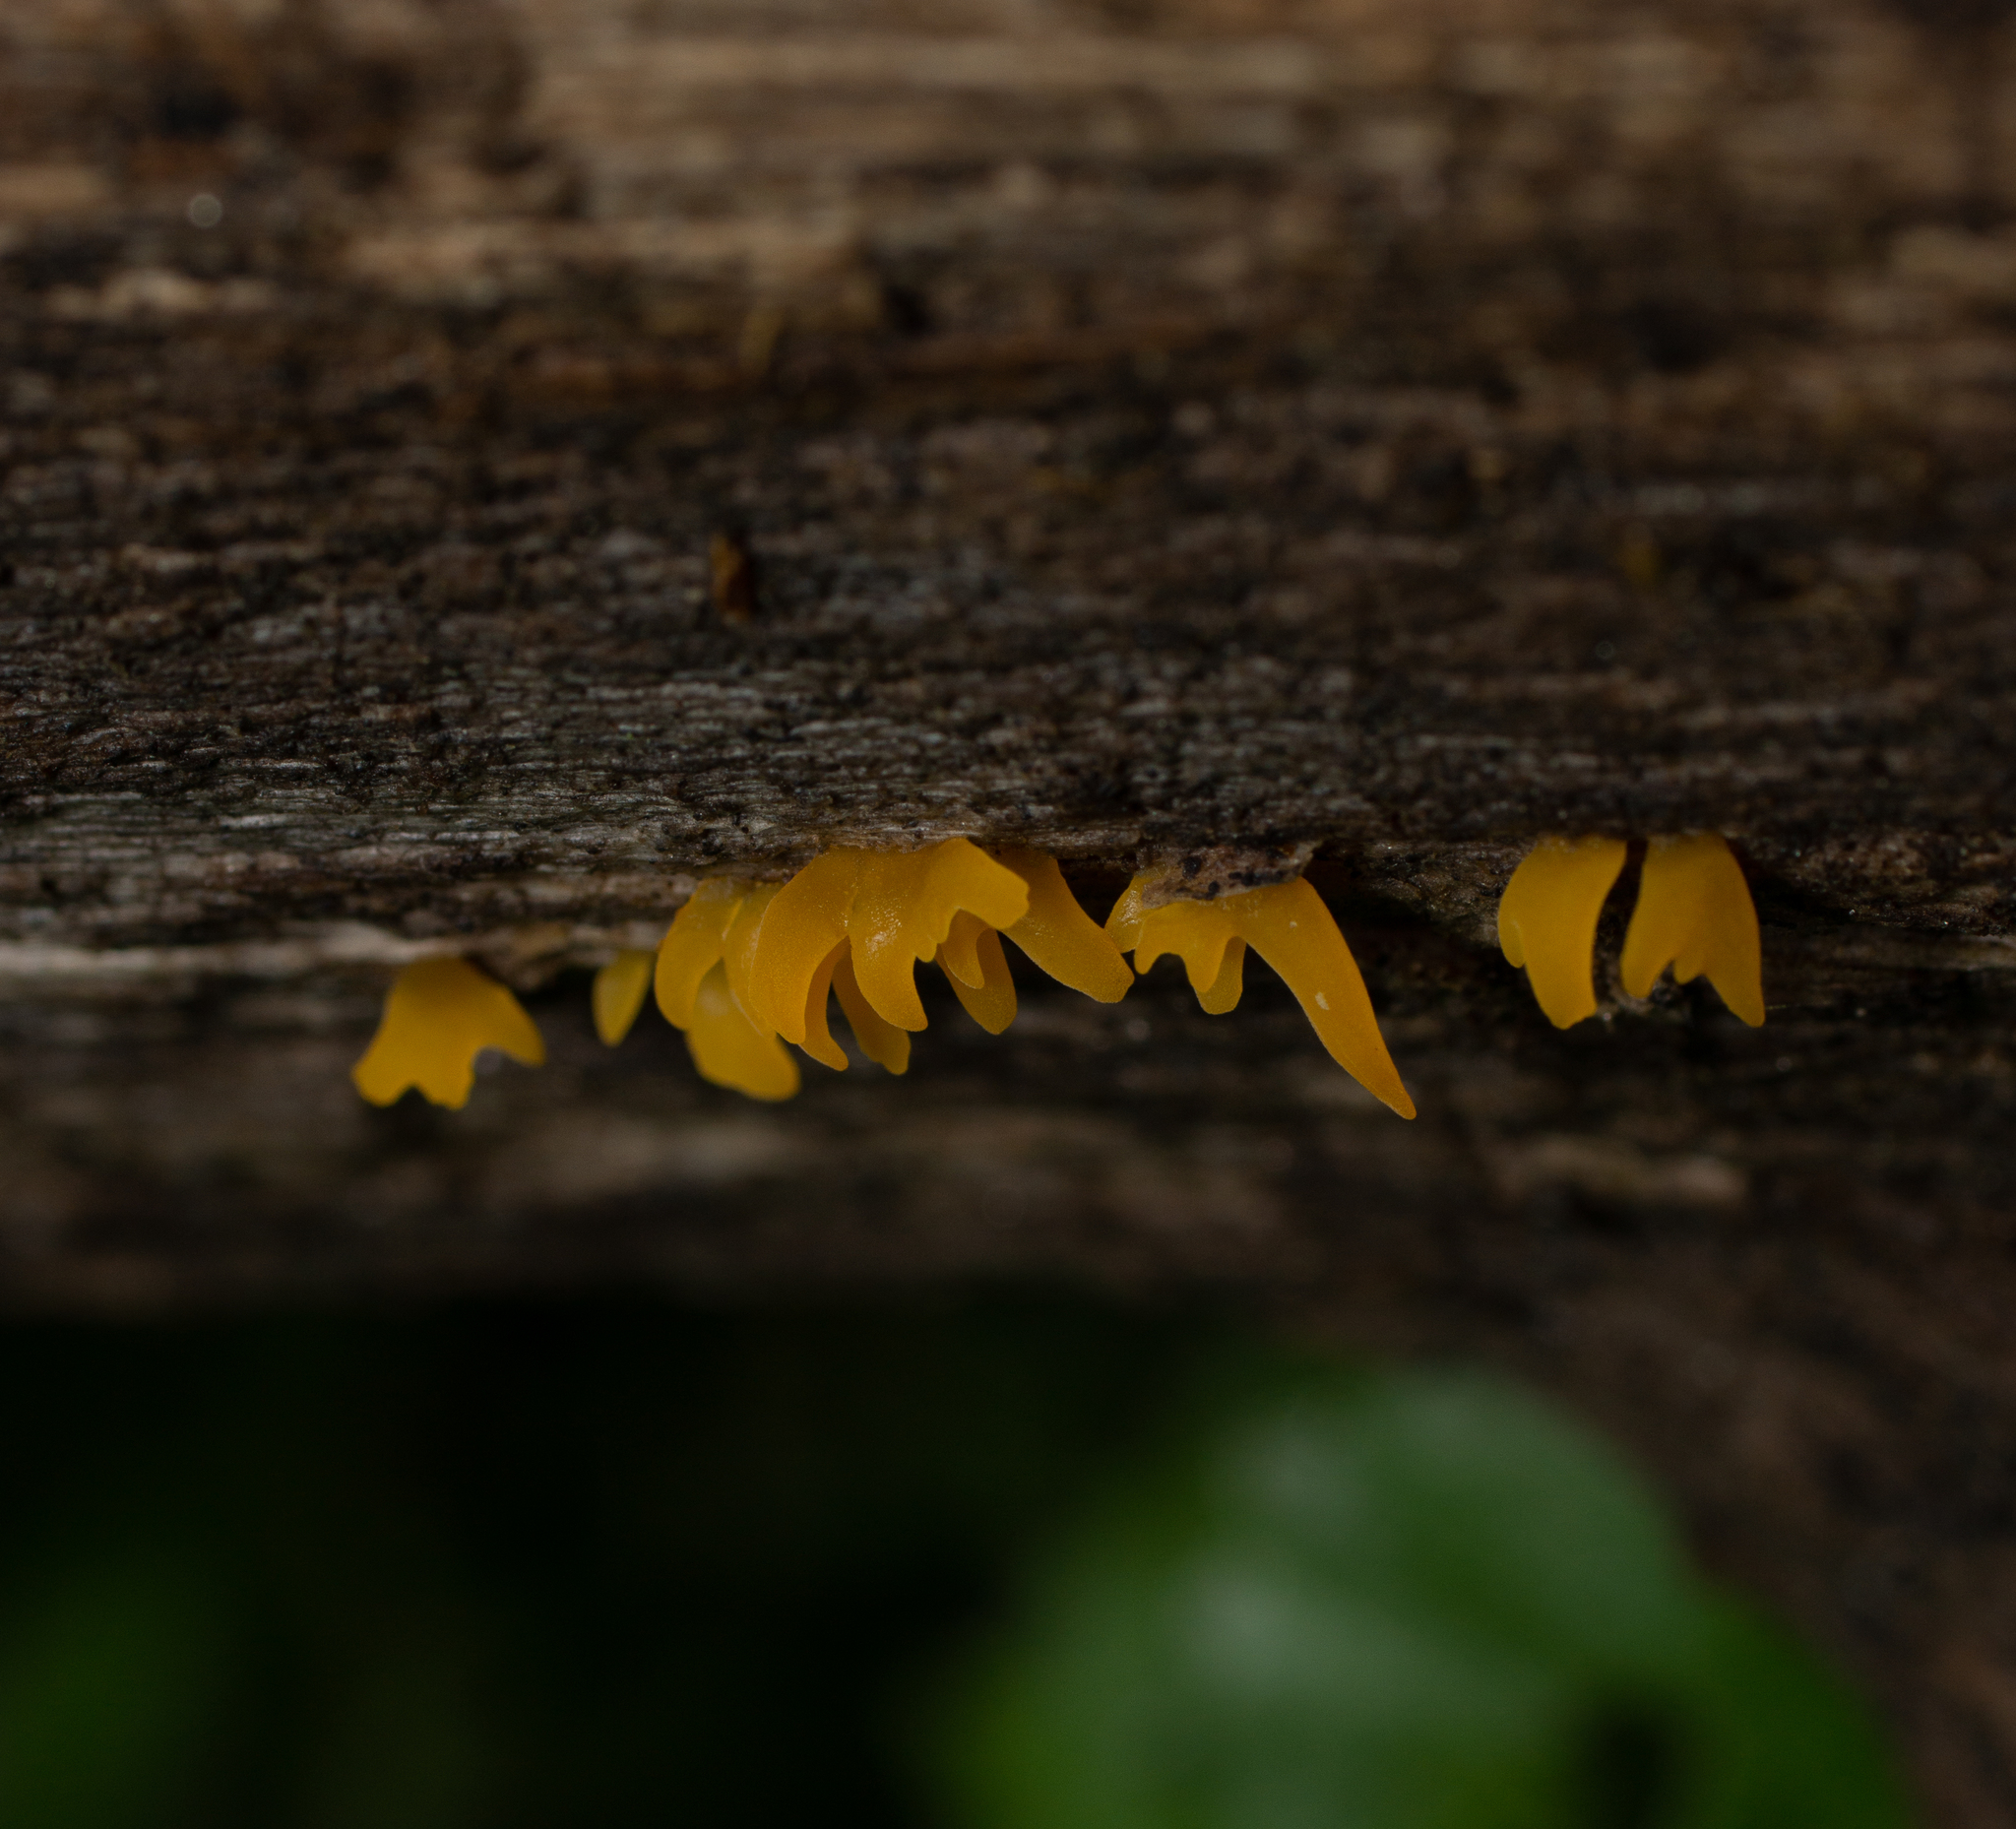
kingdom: Fungi
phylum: Basidiomycota
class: Dacrymycetes
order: Dacrymycetales
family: Dacrymycetaceae
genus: Calocera
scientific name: Calocera cornea
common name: Small stagshorn
